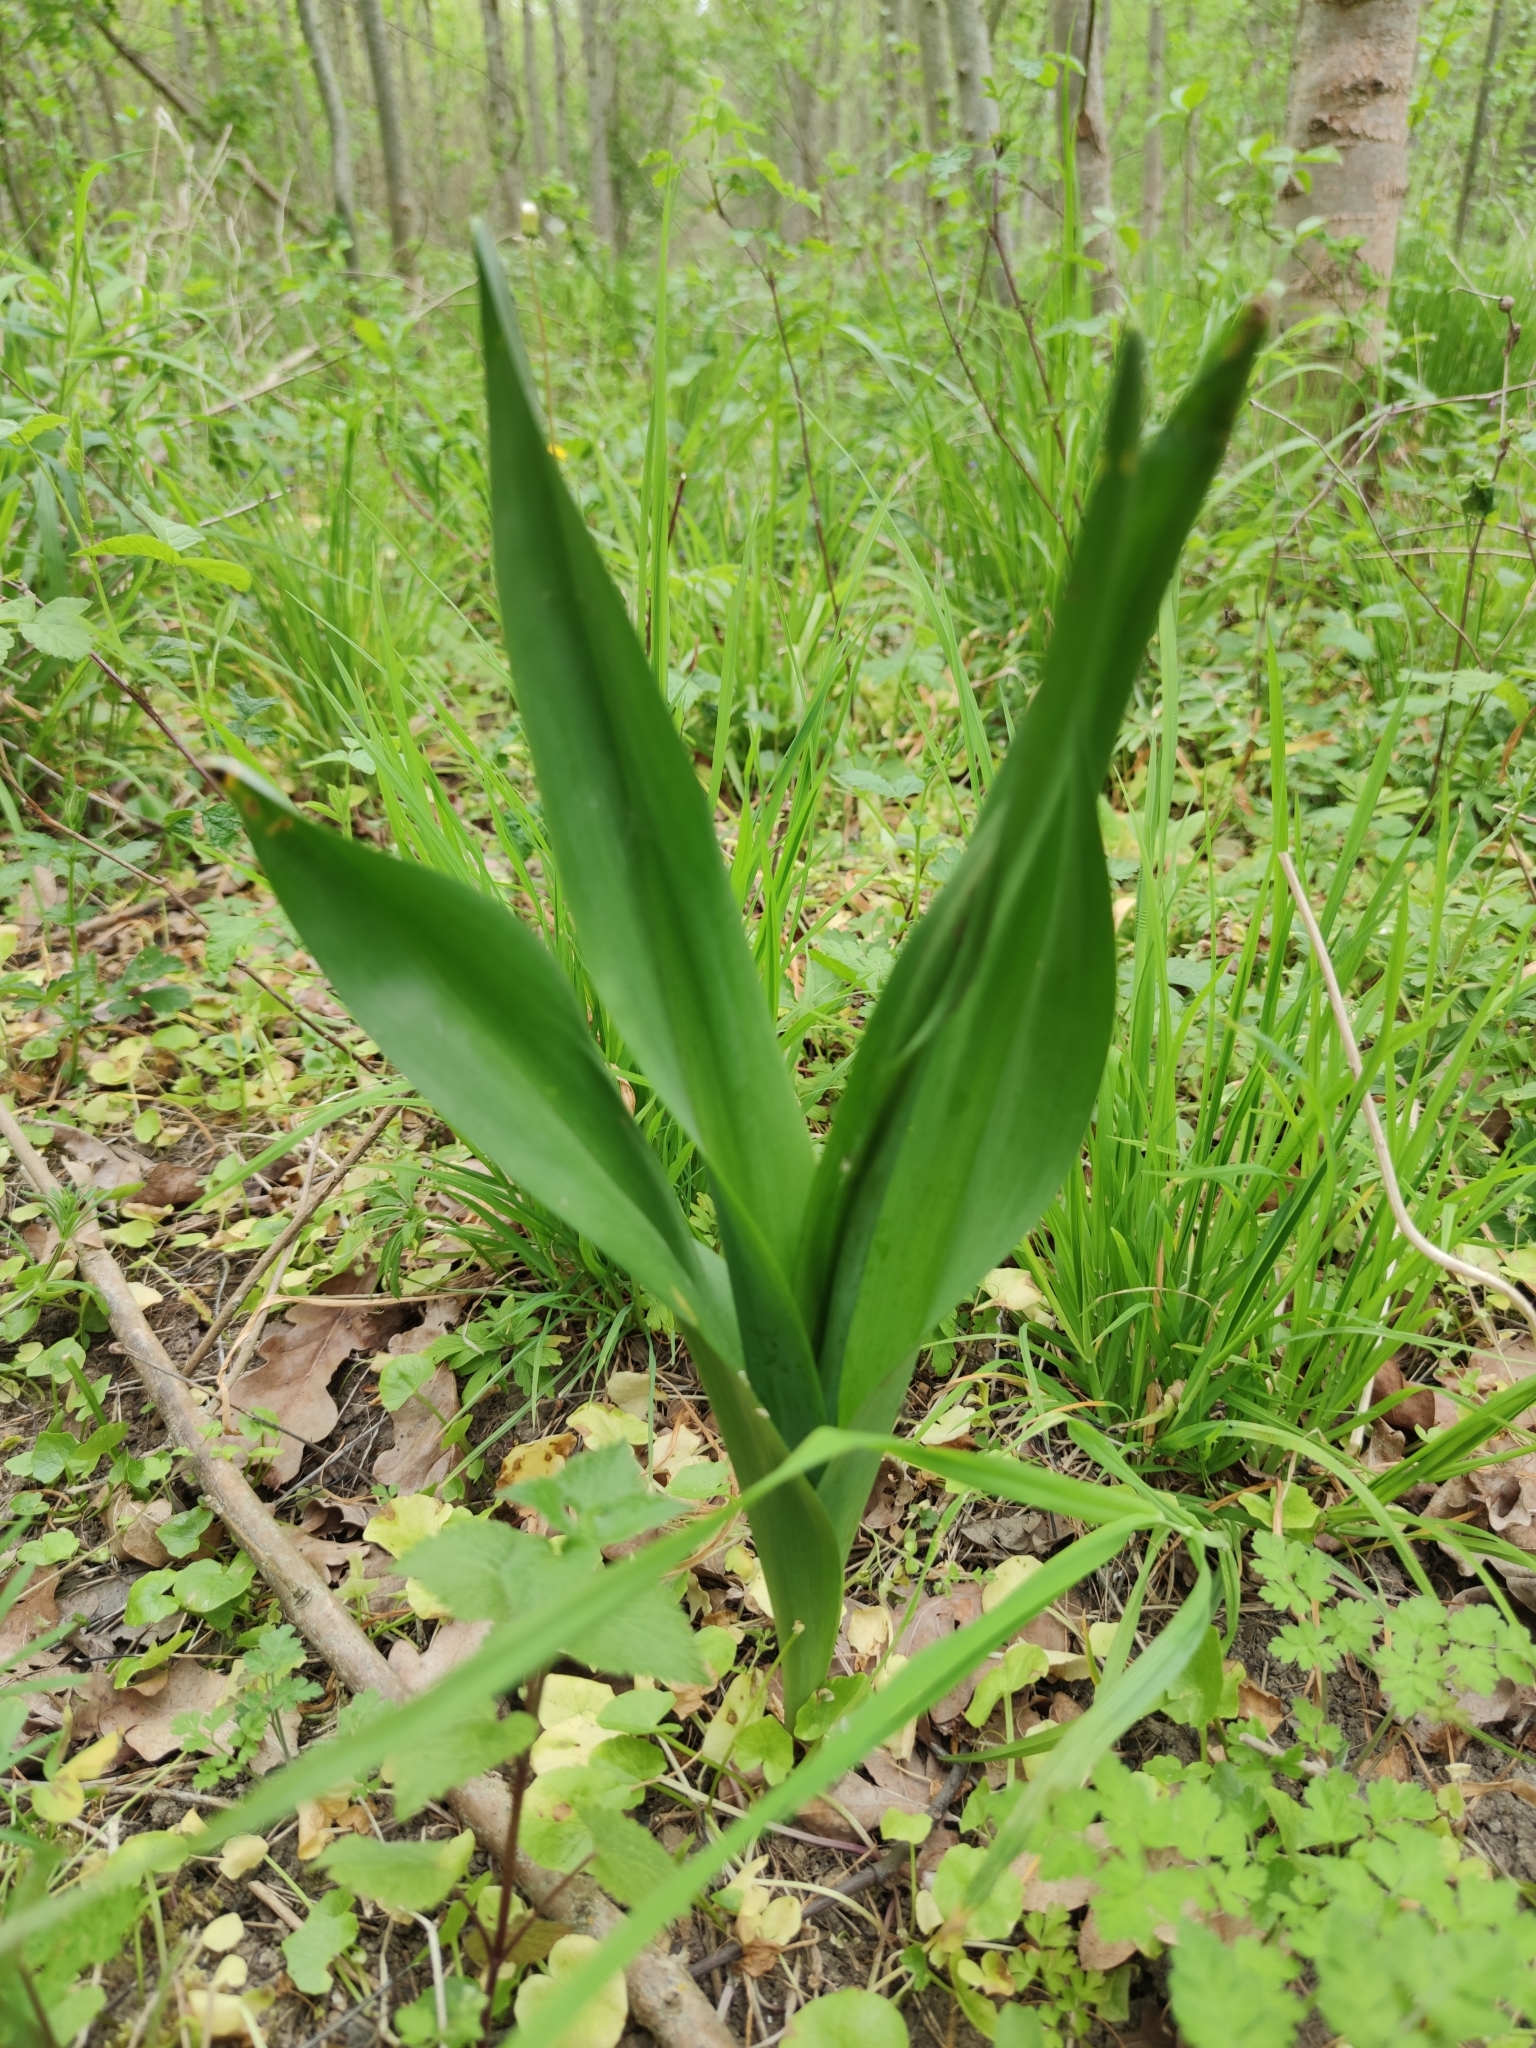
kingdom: Plantae
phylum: Tracheophyta
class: Liliopsida
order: Liliales
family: Colchicaceae
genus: Colchicum
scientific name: Colchicum autumnale
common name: Autumn crocus
